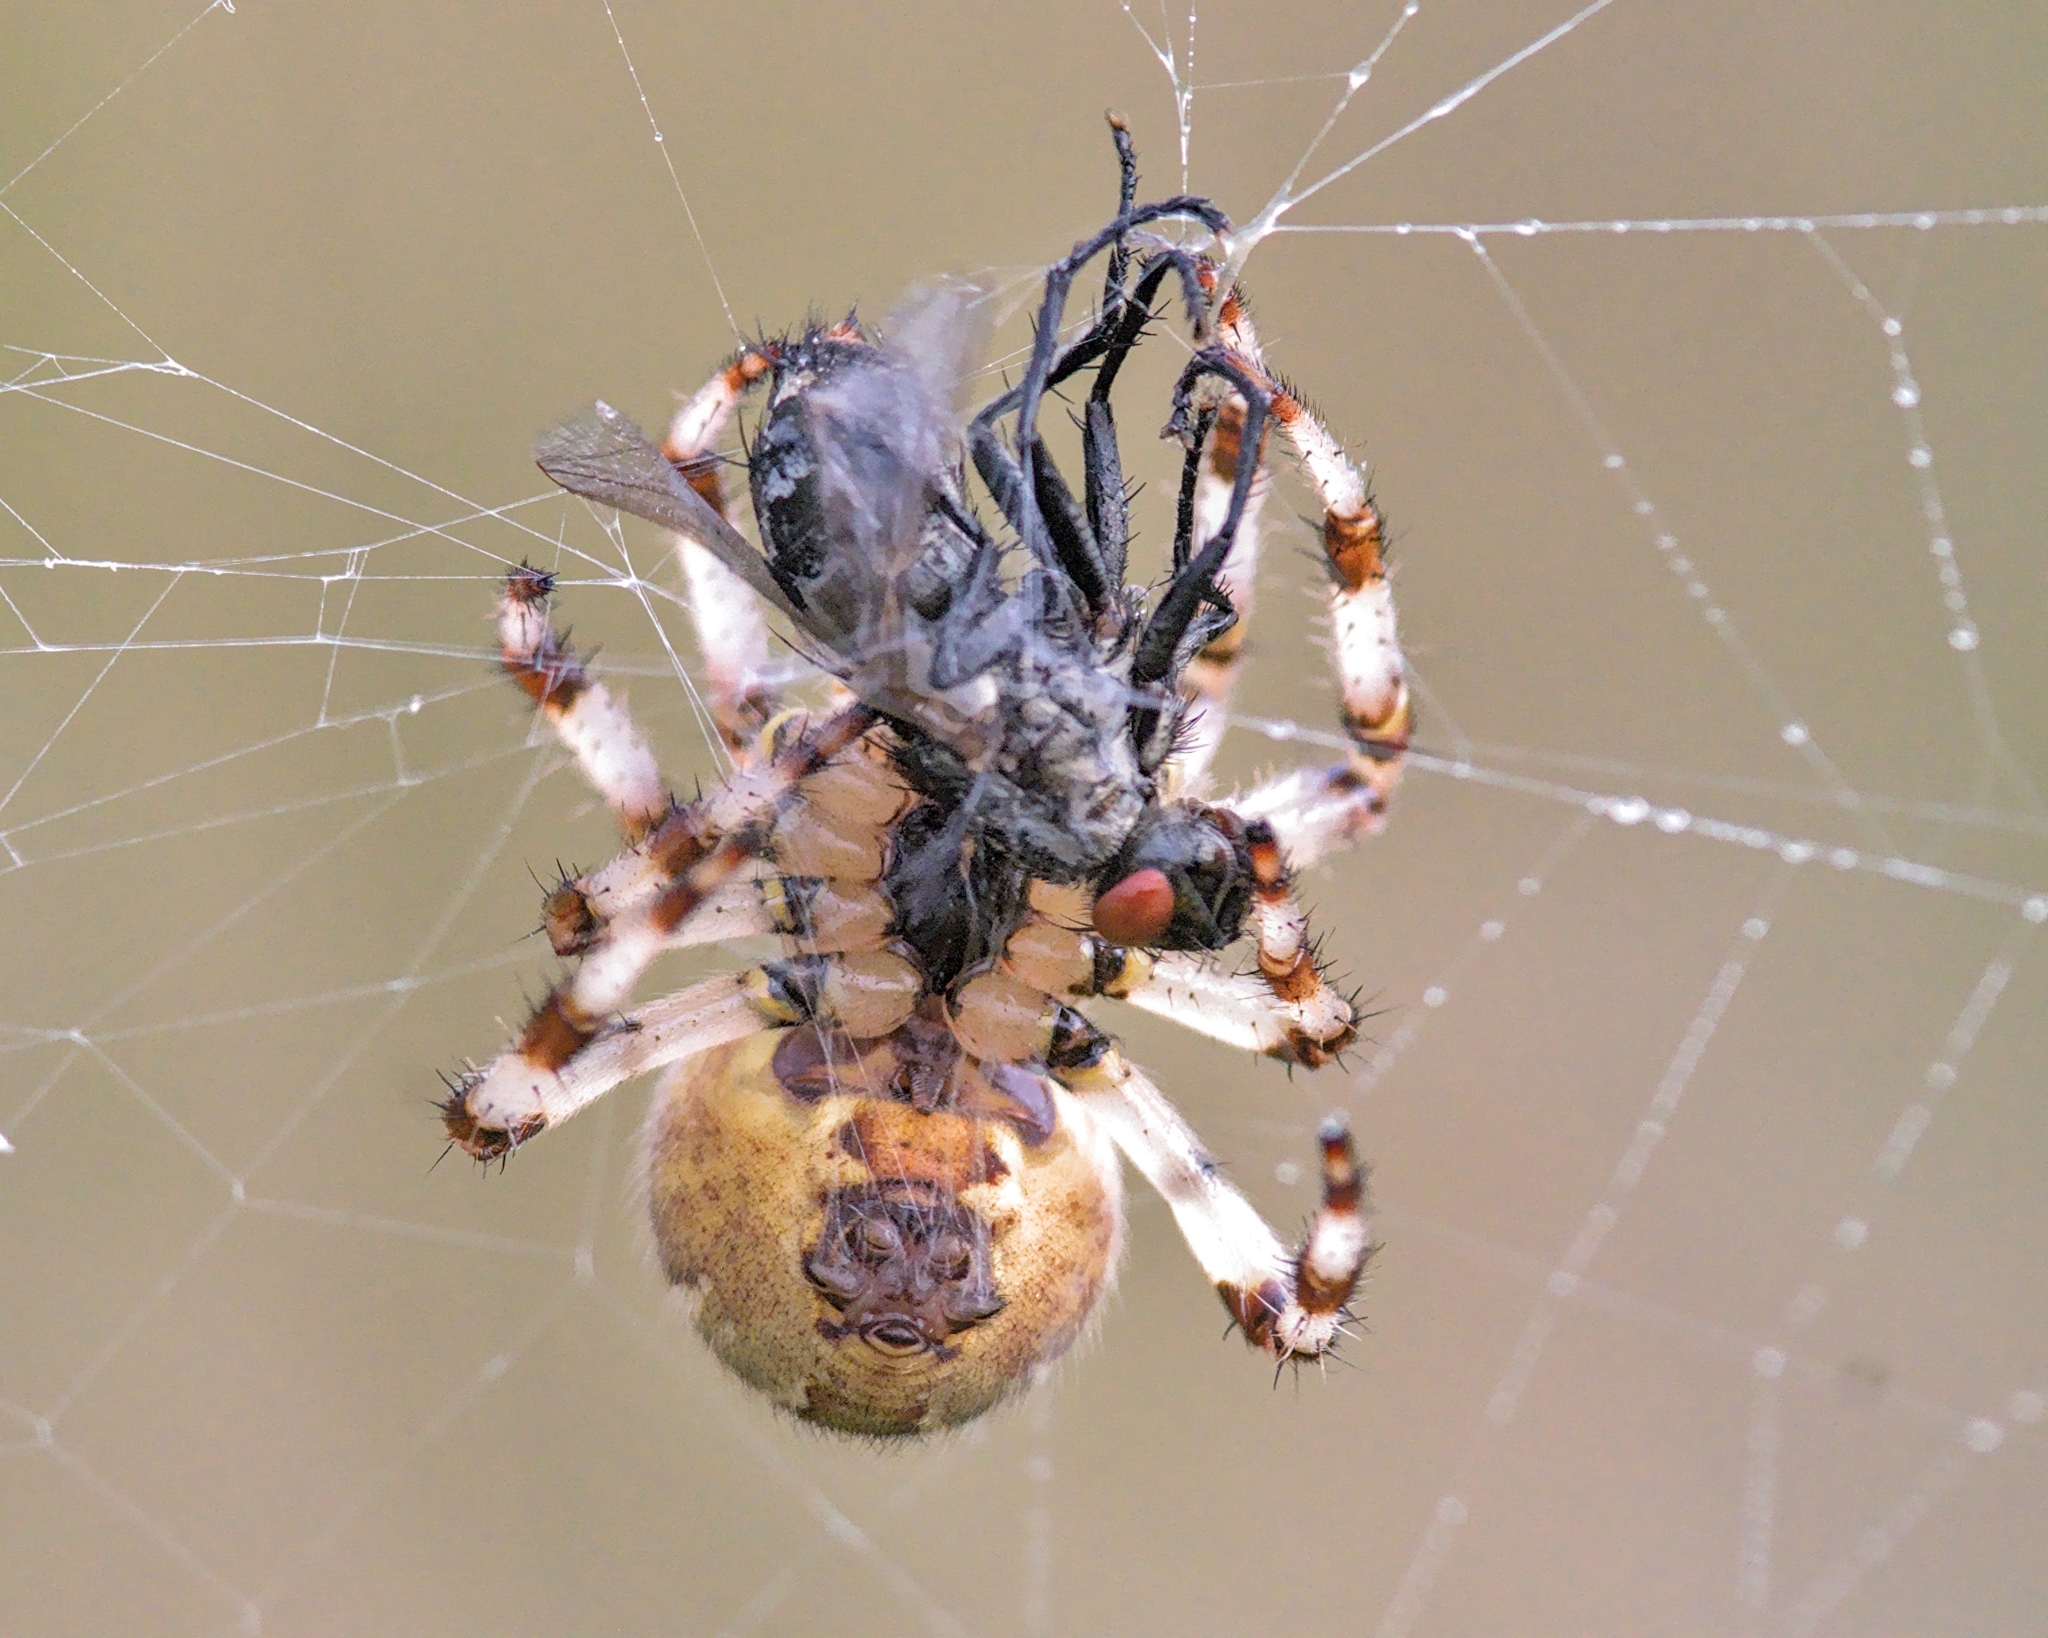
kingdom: Animalia
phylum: Arthropoda
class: Arachnida
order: Araneae
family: Araneidae
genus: Araneus
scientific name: Araneus quadratus
